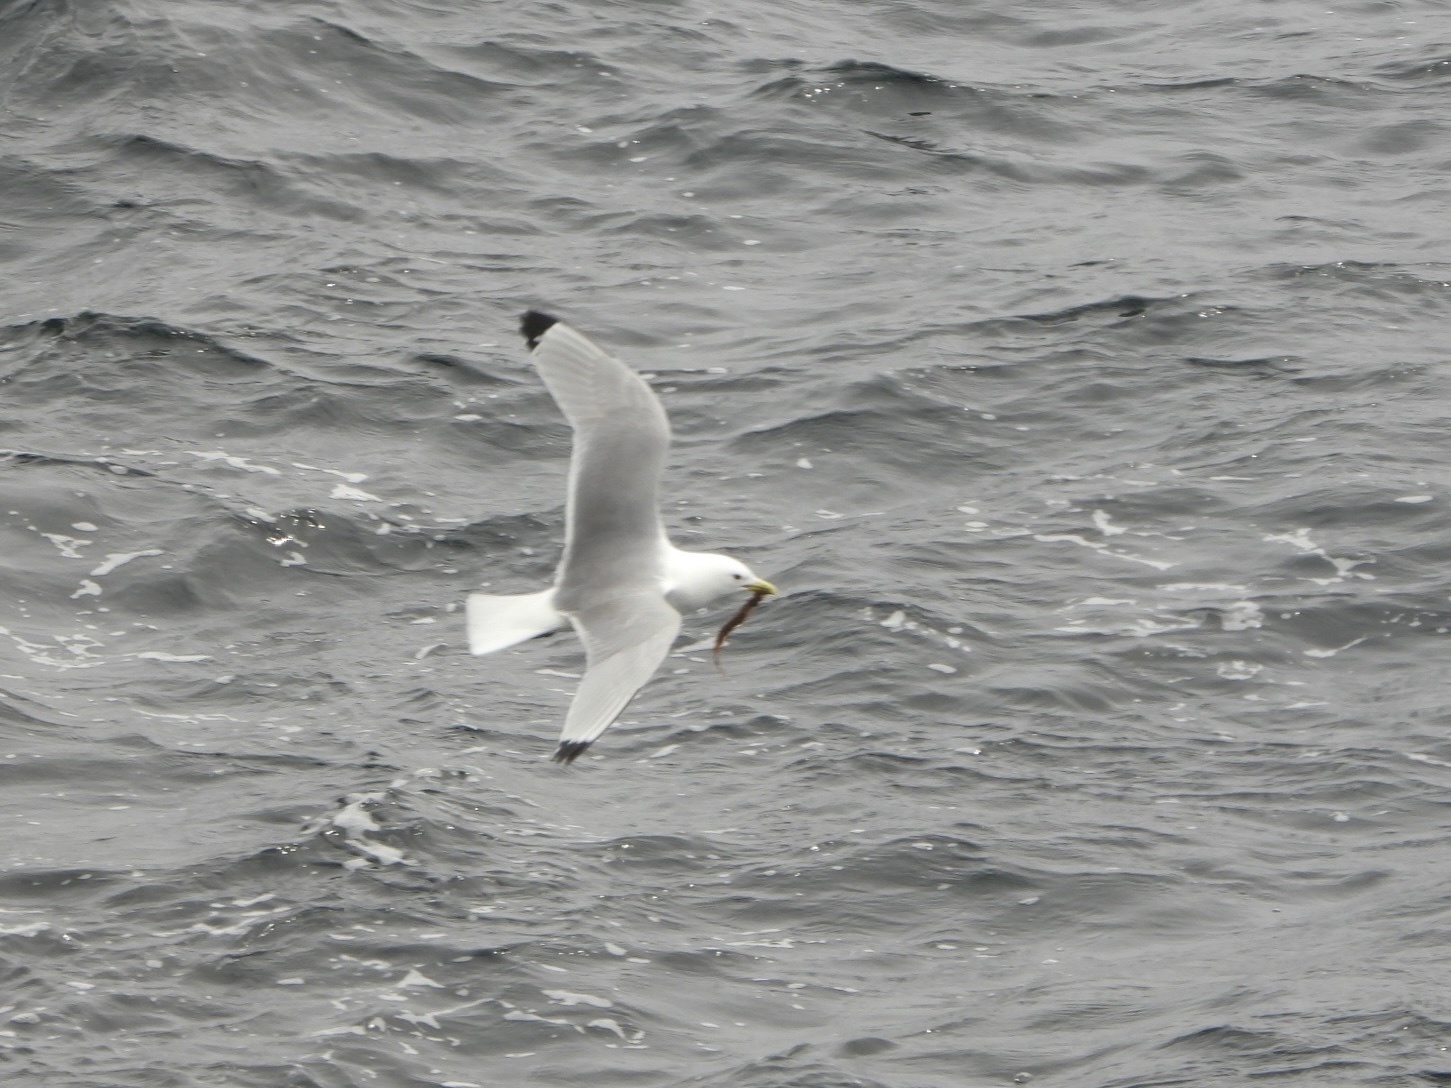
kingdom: Animalia
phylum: Chordata
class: Aves
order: Charadriiformes
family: Laridae
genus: Rissa
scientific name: Rissa tridactyla
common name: Black-legged kittiwake
